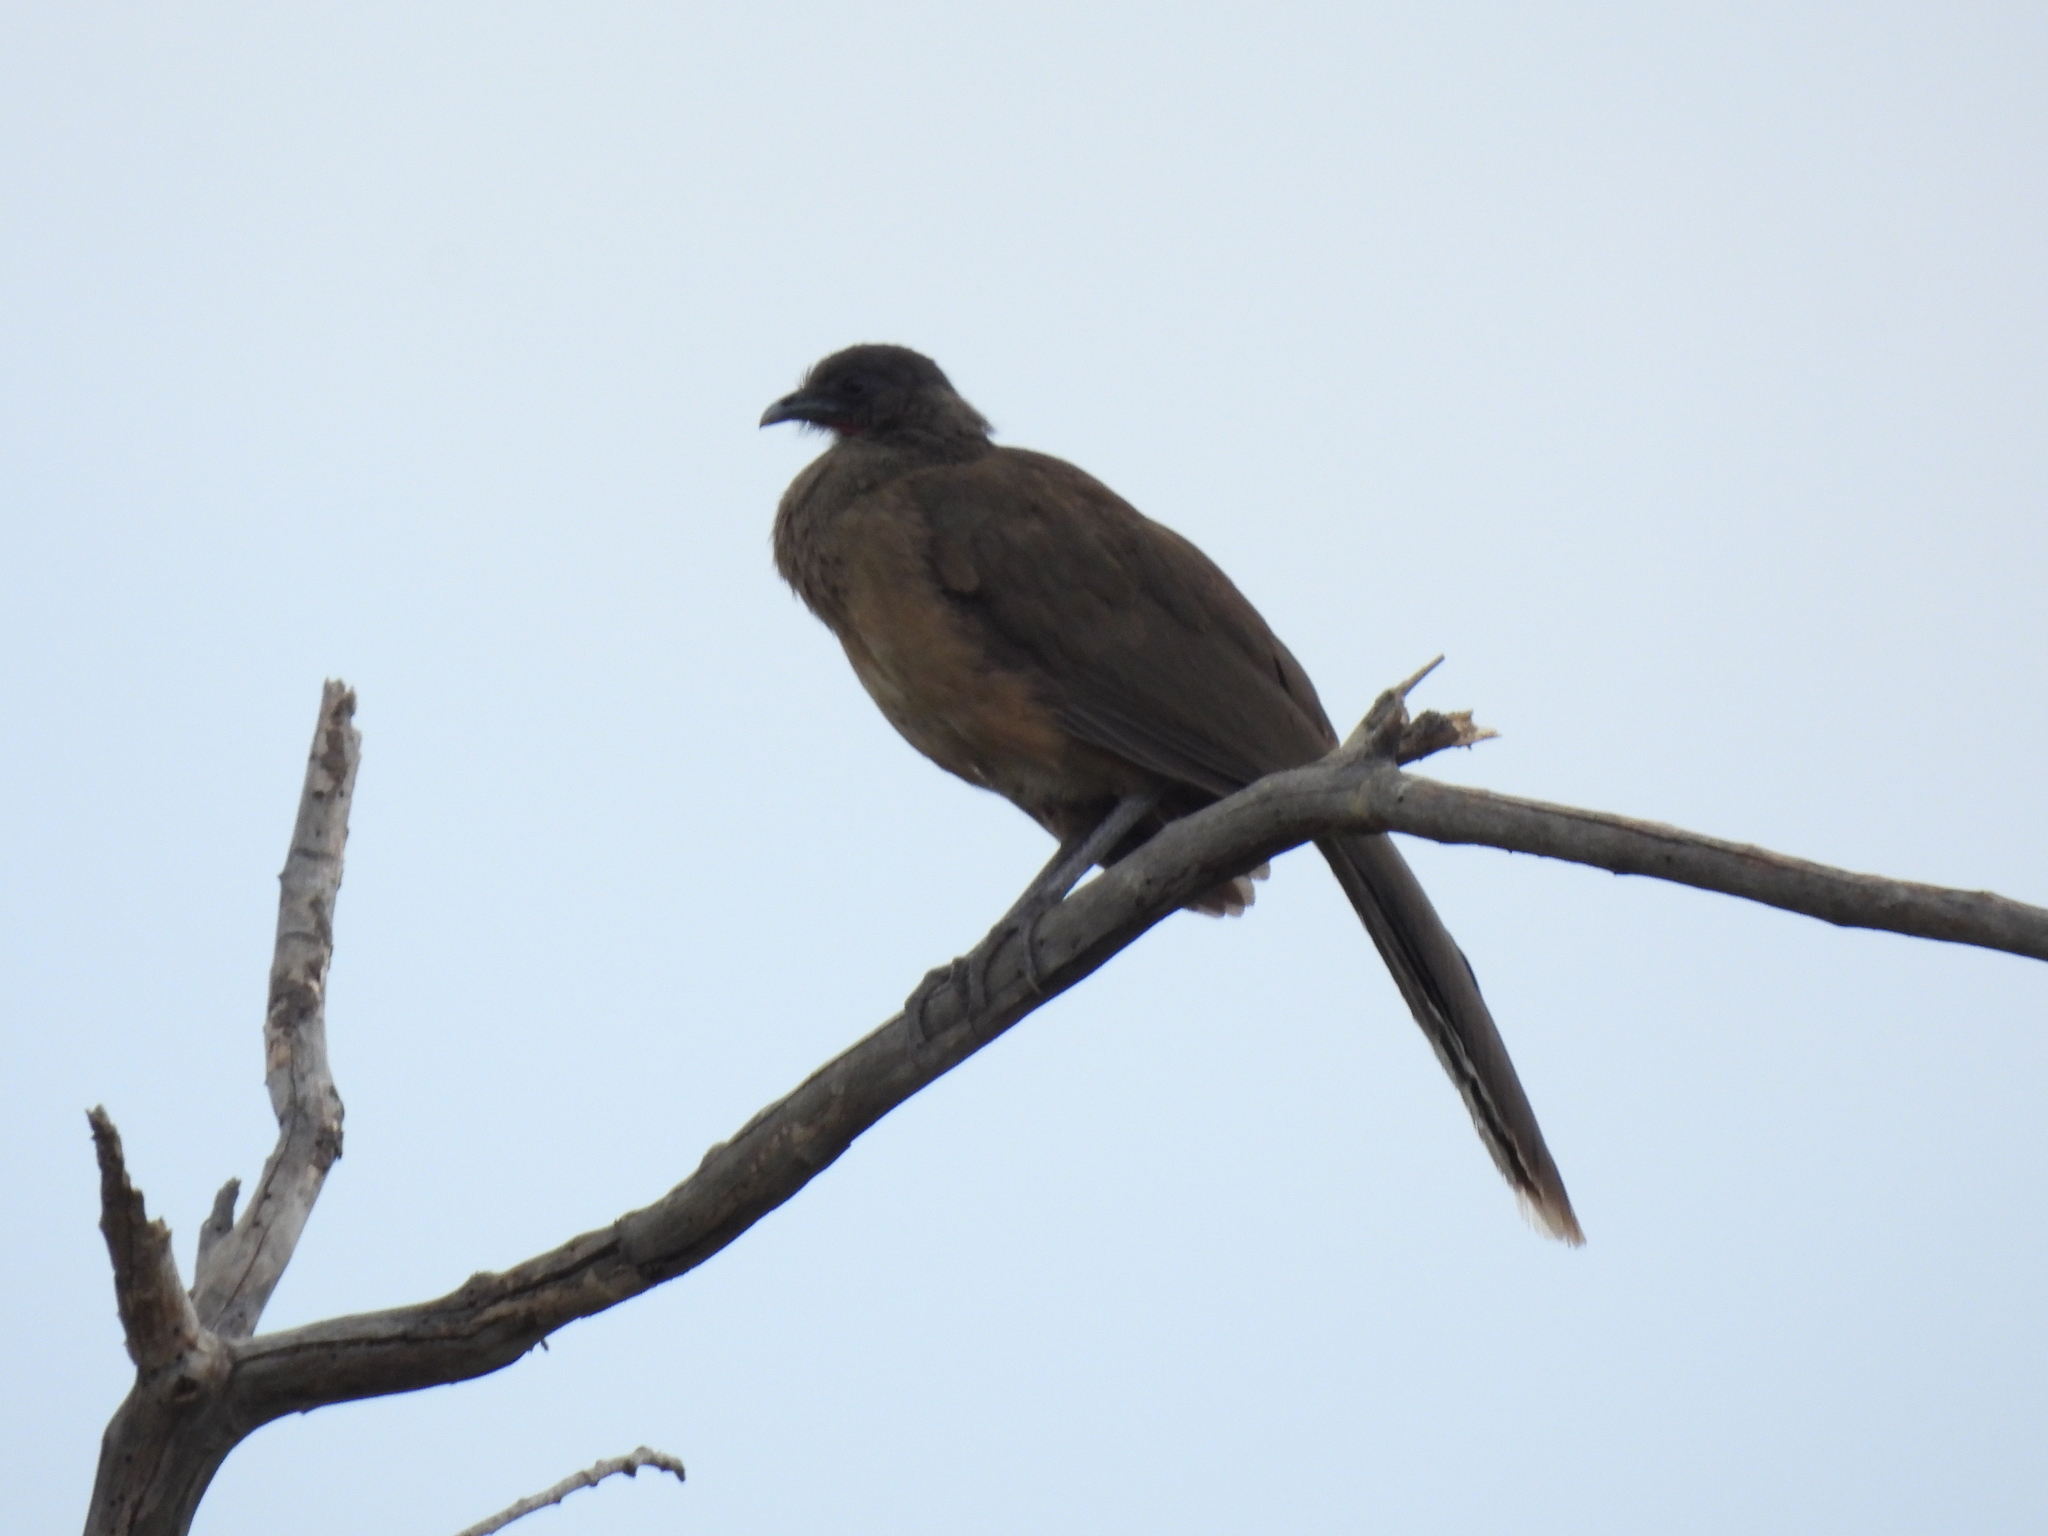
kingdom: Animalia
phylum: Chordata
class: Aves
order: Galliformes
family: Cracidae
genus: Ortalis
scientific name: Ortalis vetula
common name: Plain chachalaca
